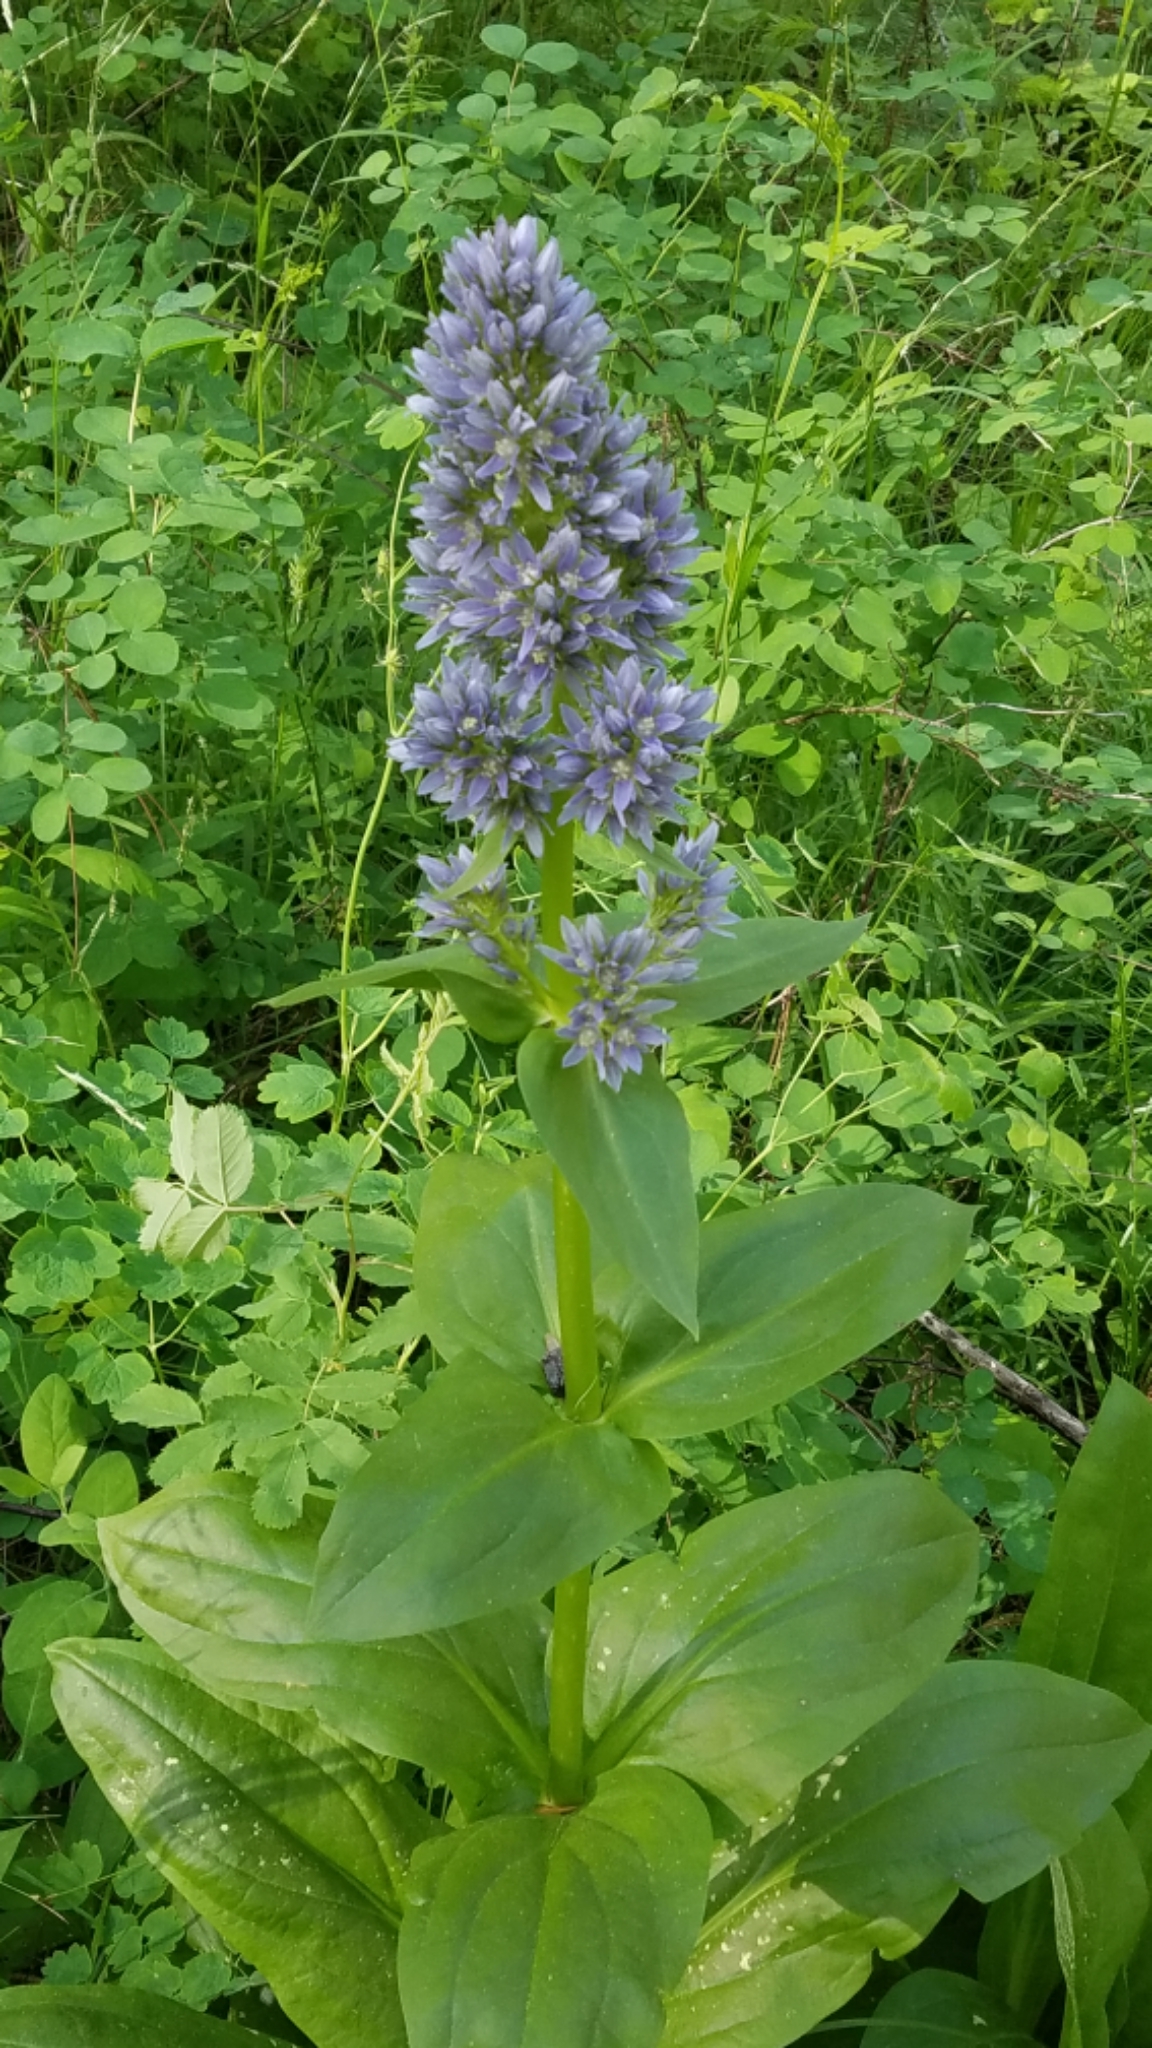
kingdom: Plantae
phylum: Tracheophyta
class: Magnoliopsida
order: Gentianales
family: Gentianaceae
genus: Frasera
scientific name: Frasera fastigiata
